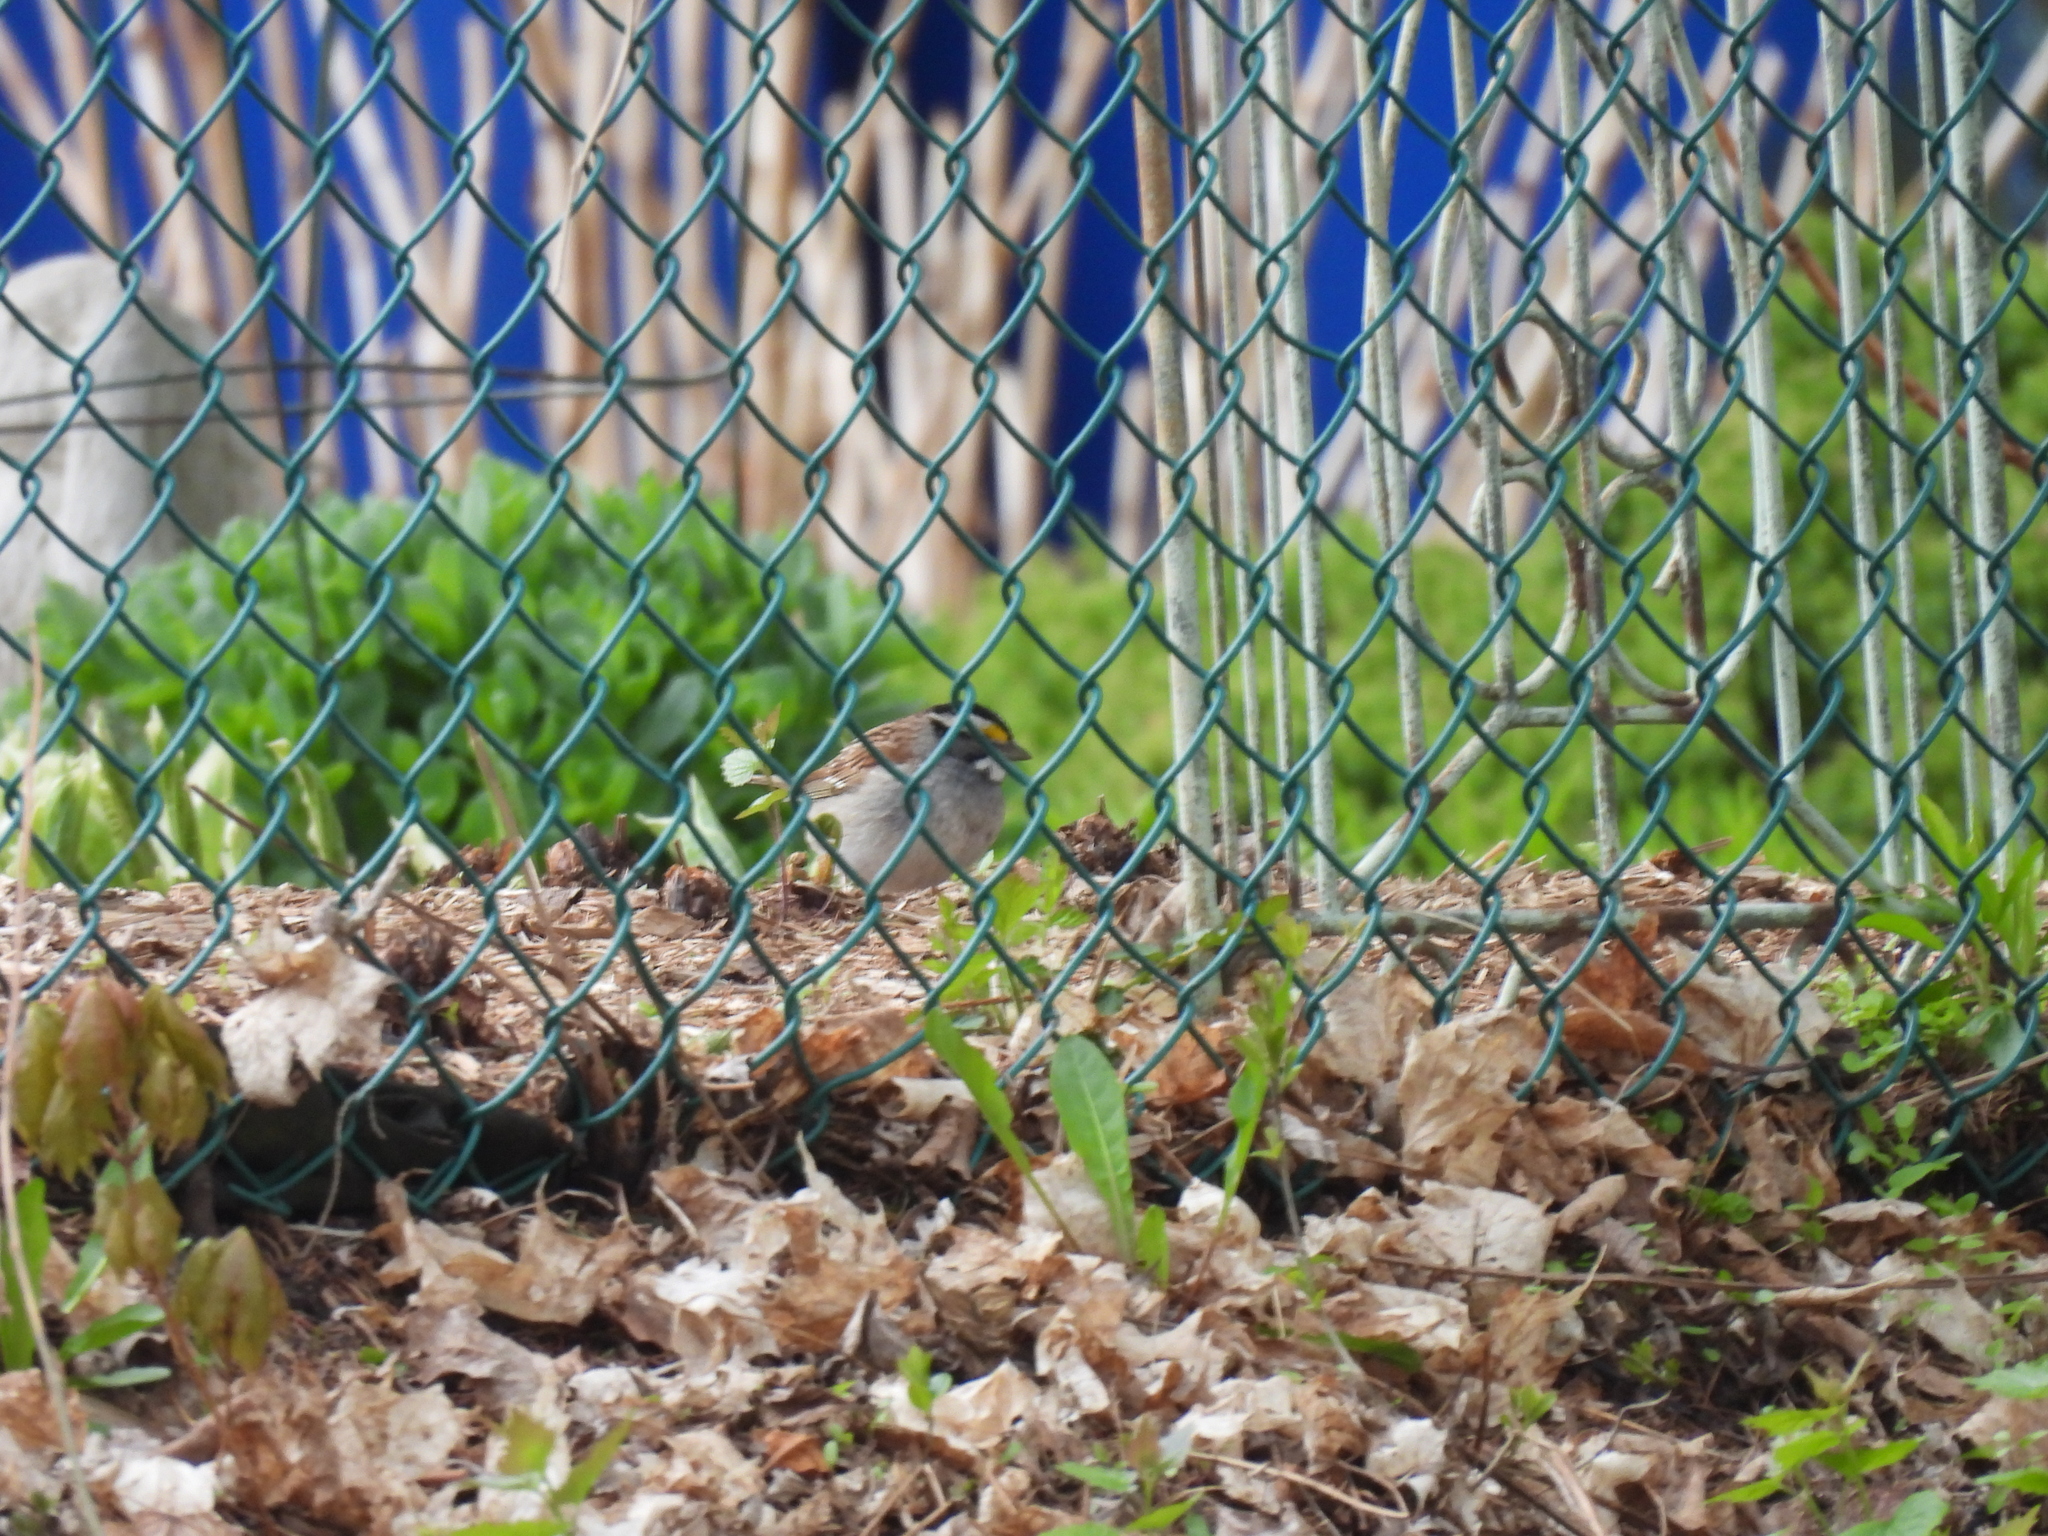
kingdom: Animalia
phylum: Chordata
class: Aves
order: Passeriformes
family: Passerellidae
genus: Zonotrichia
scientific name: Zonotrichia albicollis
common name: White-throated sparrow
